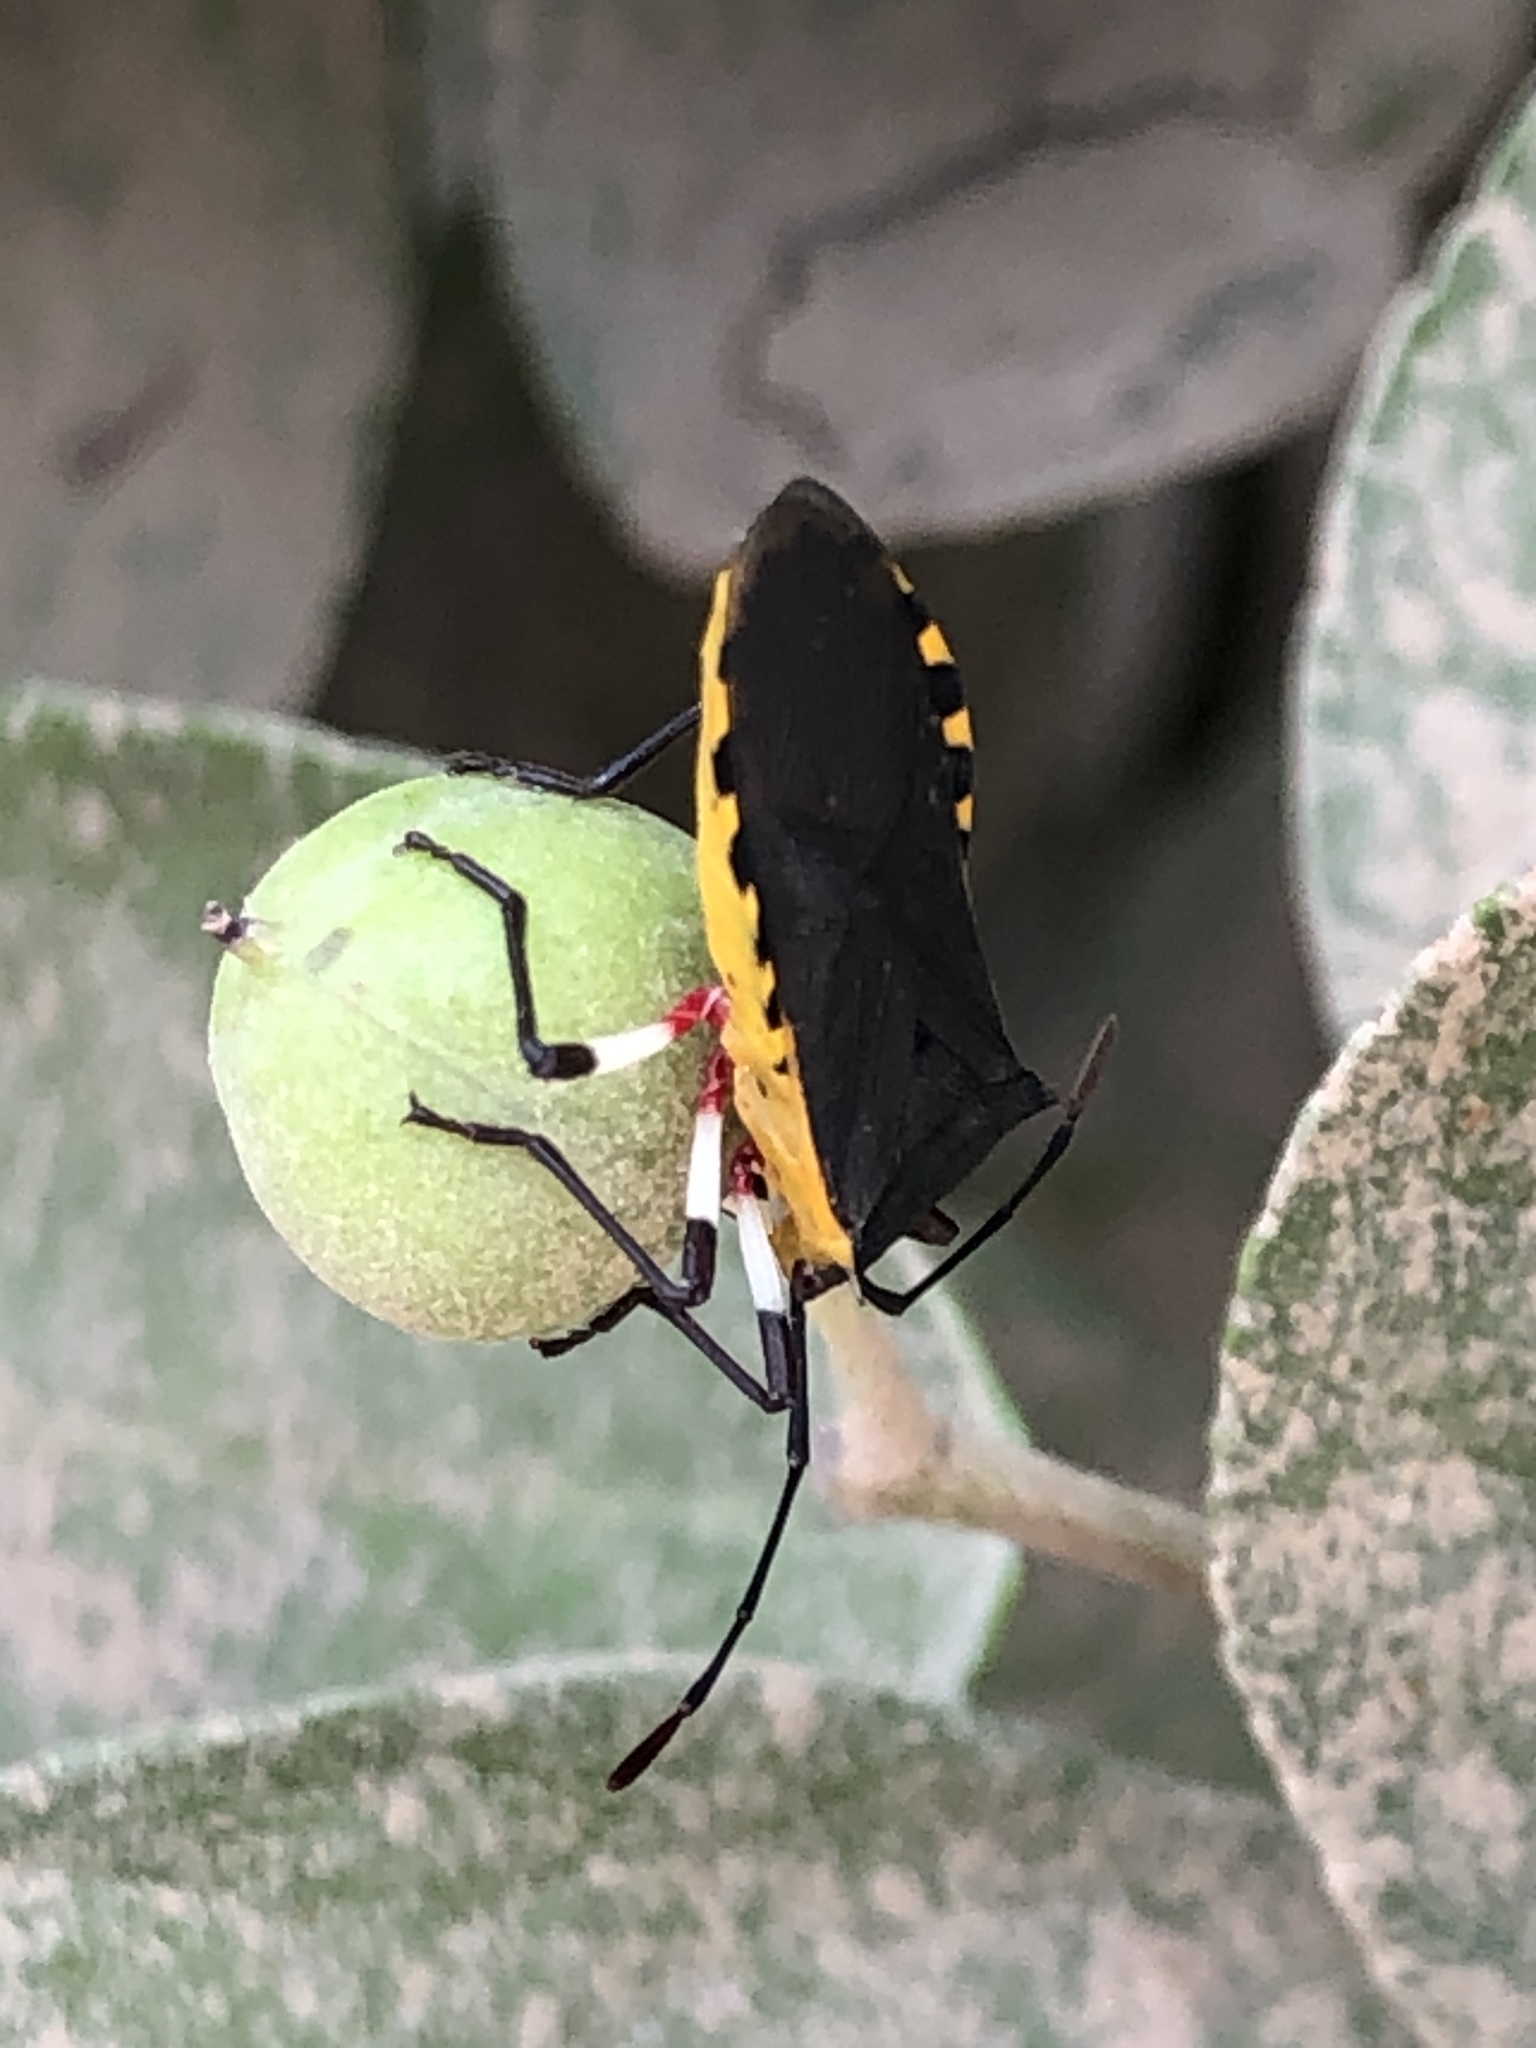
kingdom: Animalia
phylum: Arthropoda
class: Insecta
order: Hemiptera
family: Coreidae
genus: Plinachtus
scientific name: Plinachtus bicoloripes
